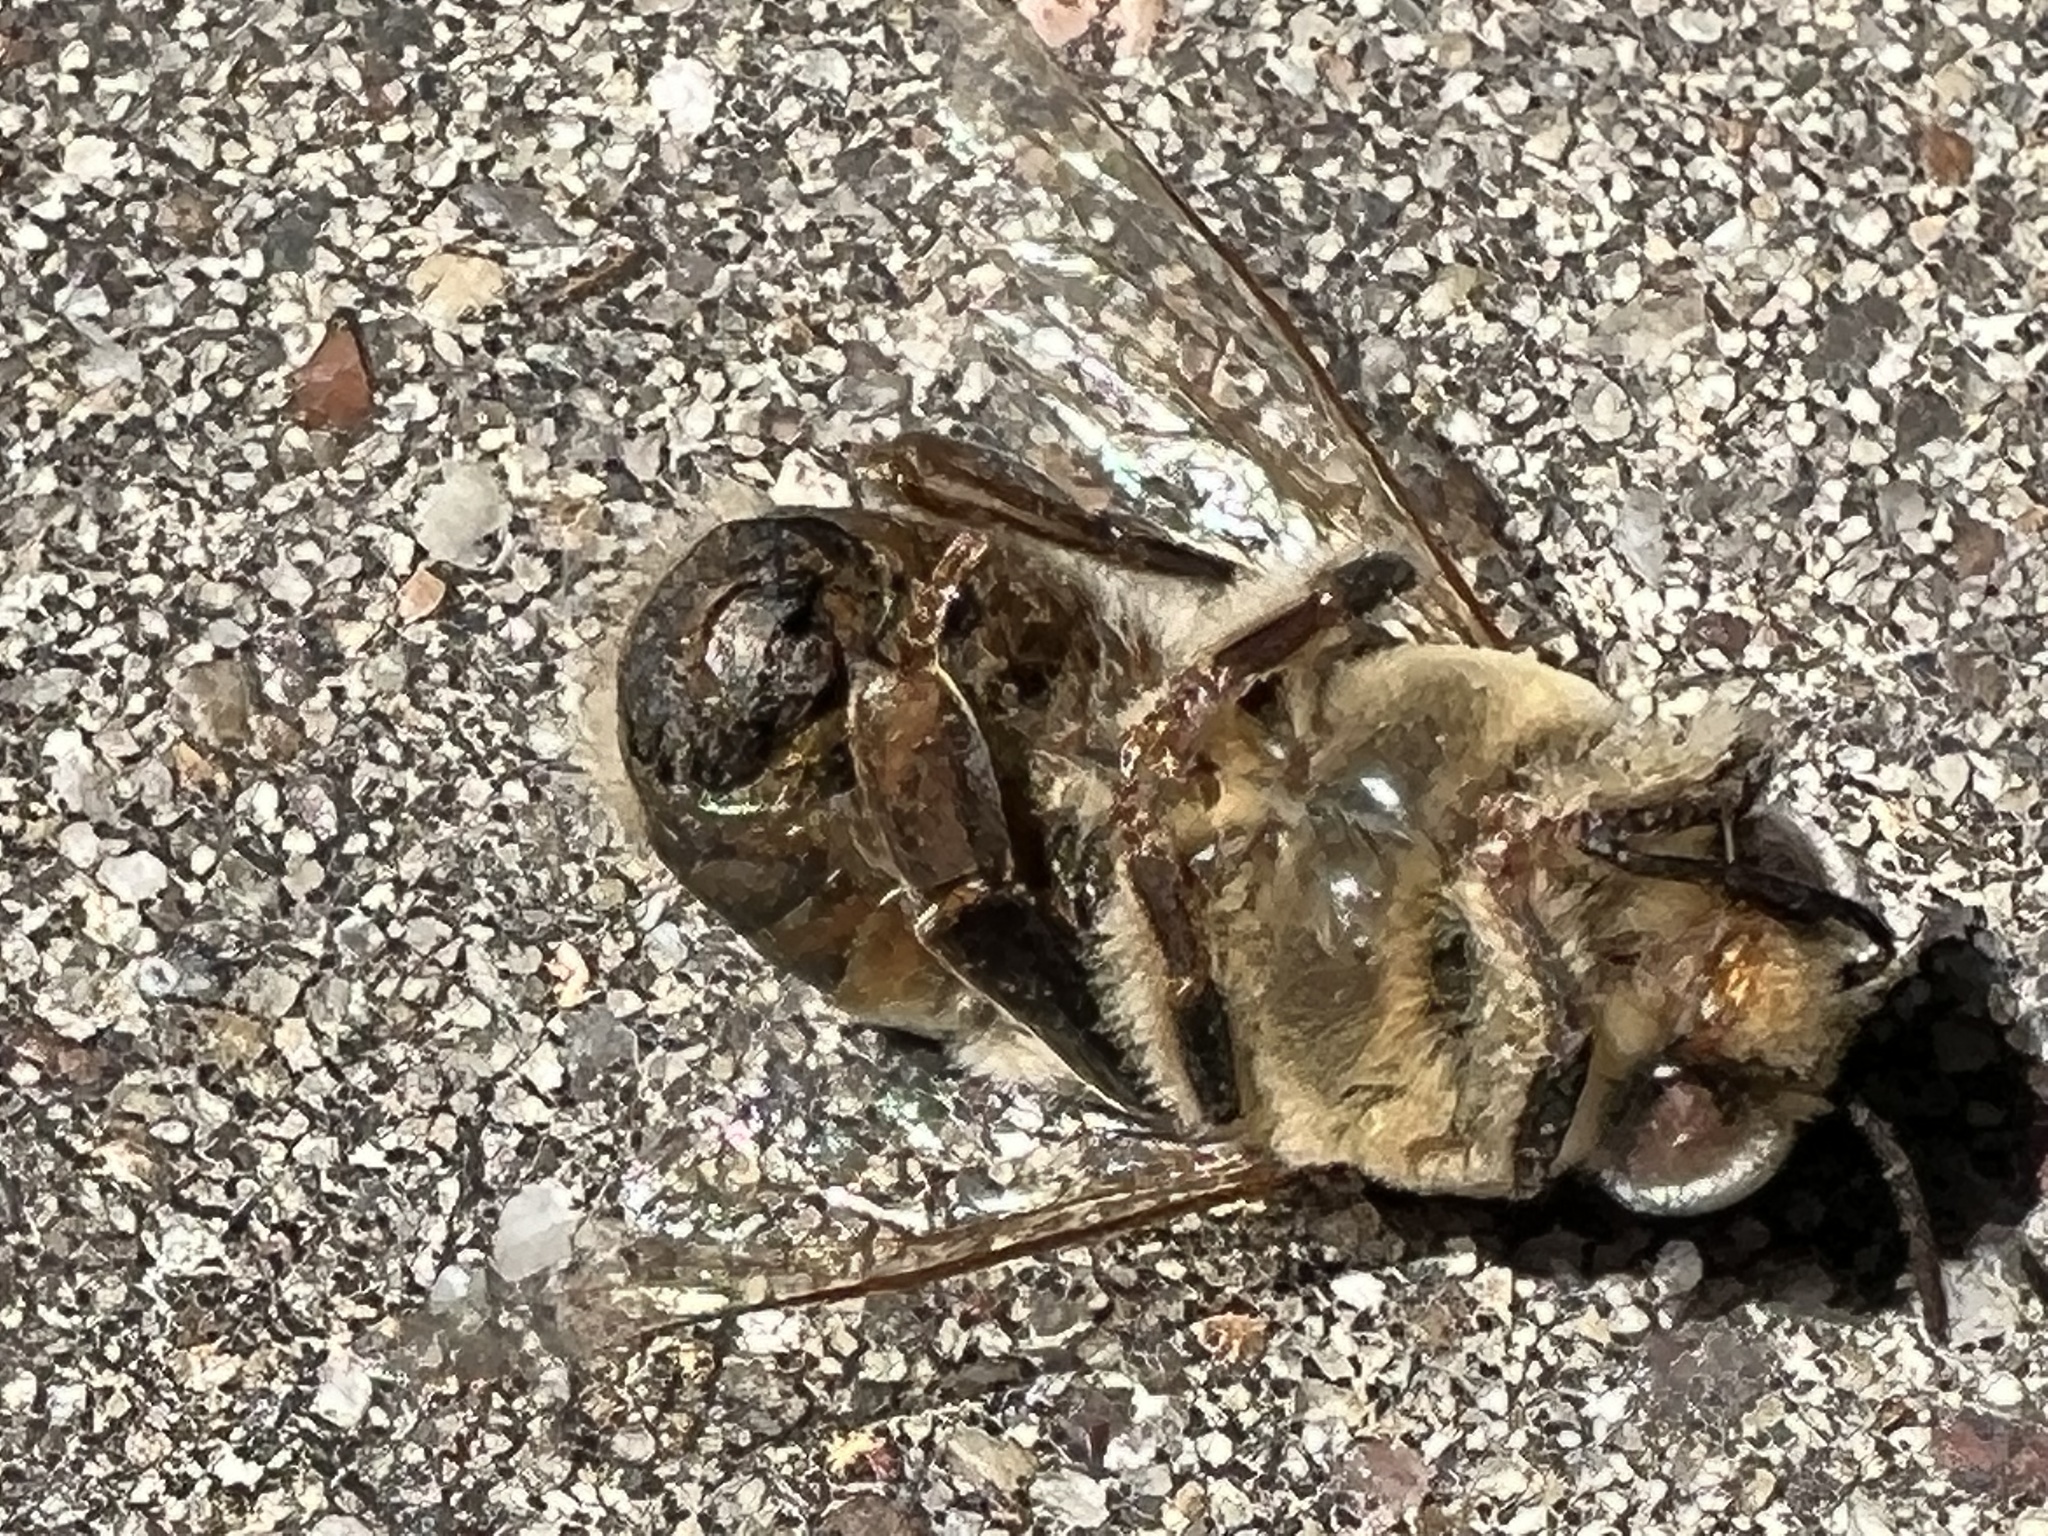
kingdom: Animalia
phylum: Arthropoda
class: Insecta
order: Hymenoptera
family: Apidae
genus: Apis
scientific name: Apis mellifera
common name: Honey bee
